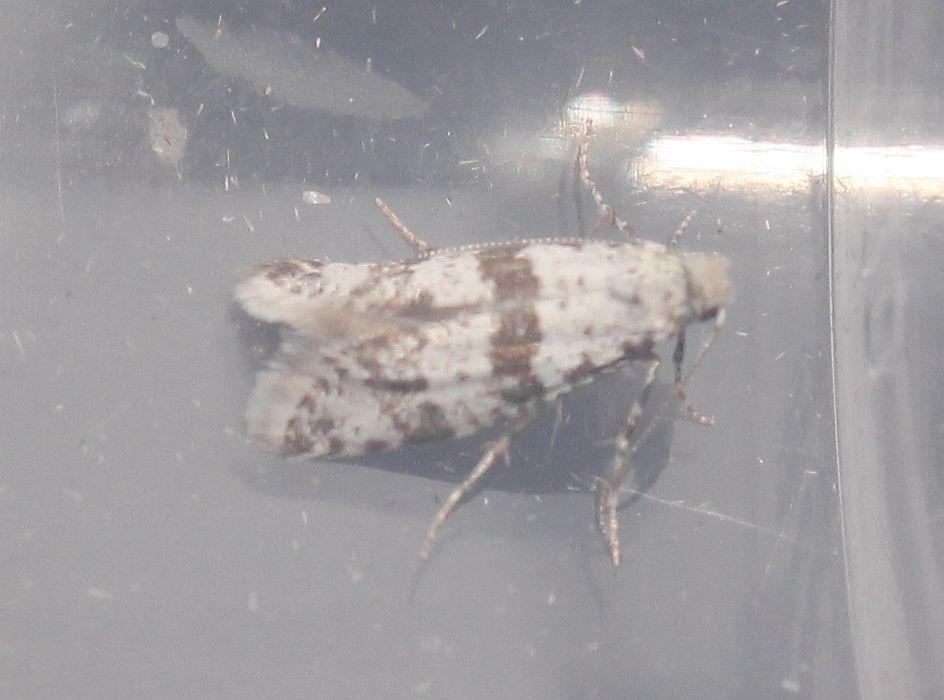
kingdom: Animalia
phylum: Arthropoda
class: Insecta
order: Lepidoptera
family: Yponomeutidae
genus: Scythropia
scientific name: Scythropia crataegella
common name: Hawthorn moth
